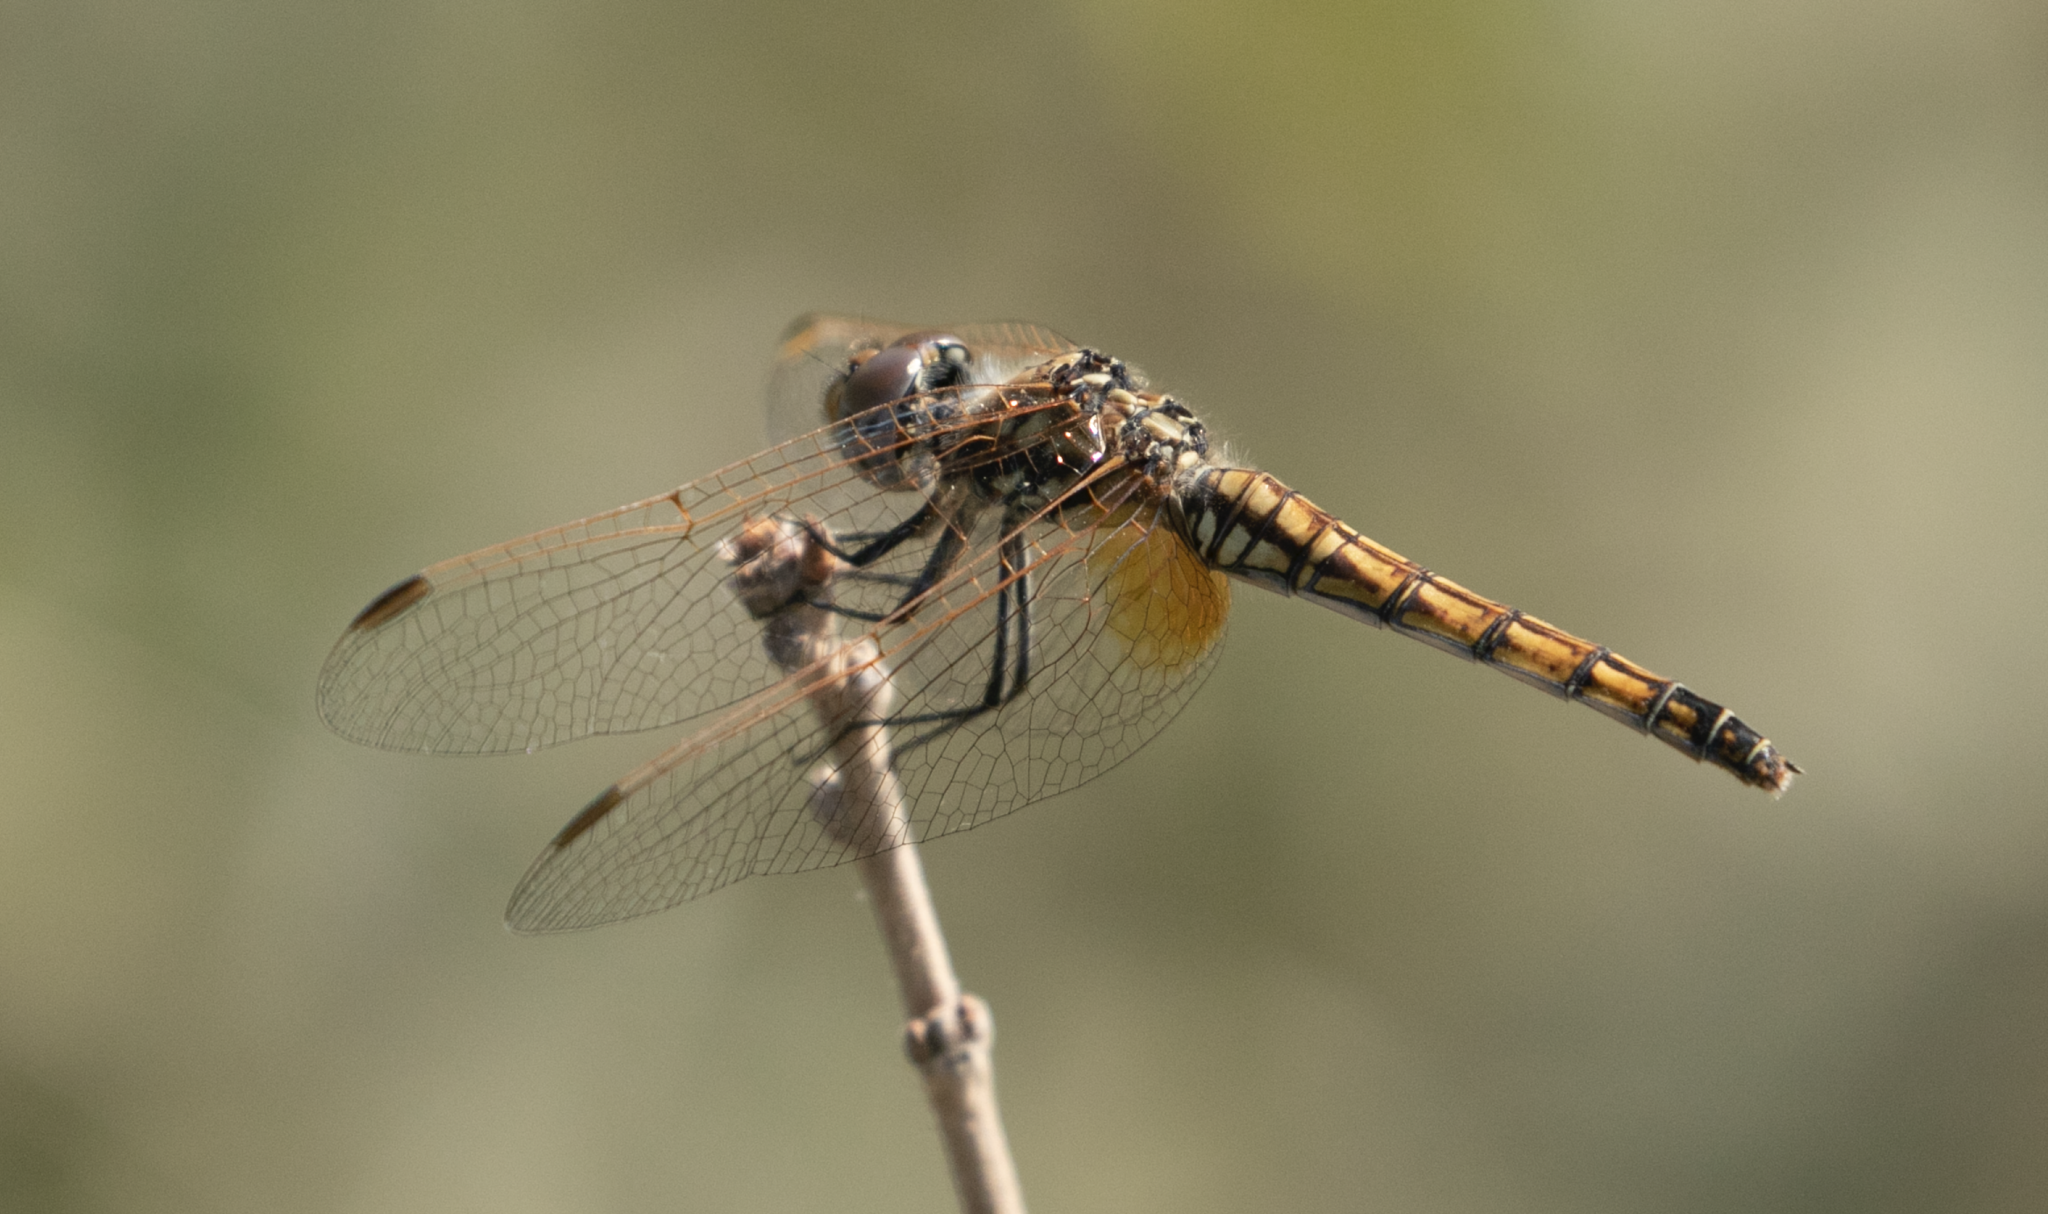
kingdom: Animalia
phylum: Arthropoda
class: Insecta
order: Odonata
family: Libellulidae
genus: Trithemis
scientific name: Trithemis annulata
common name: Violet dropwing
